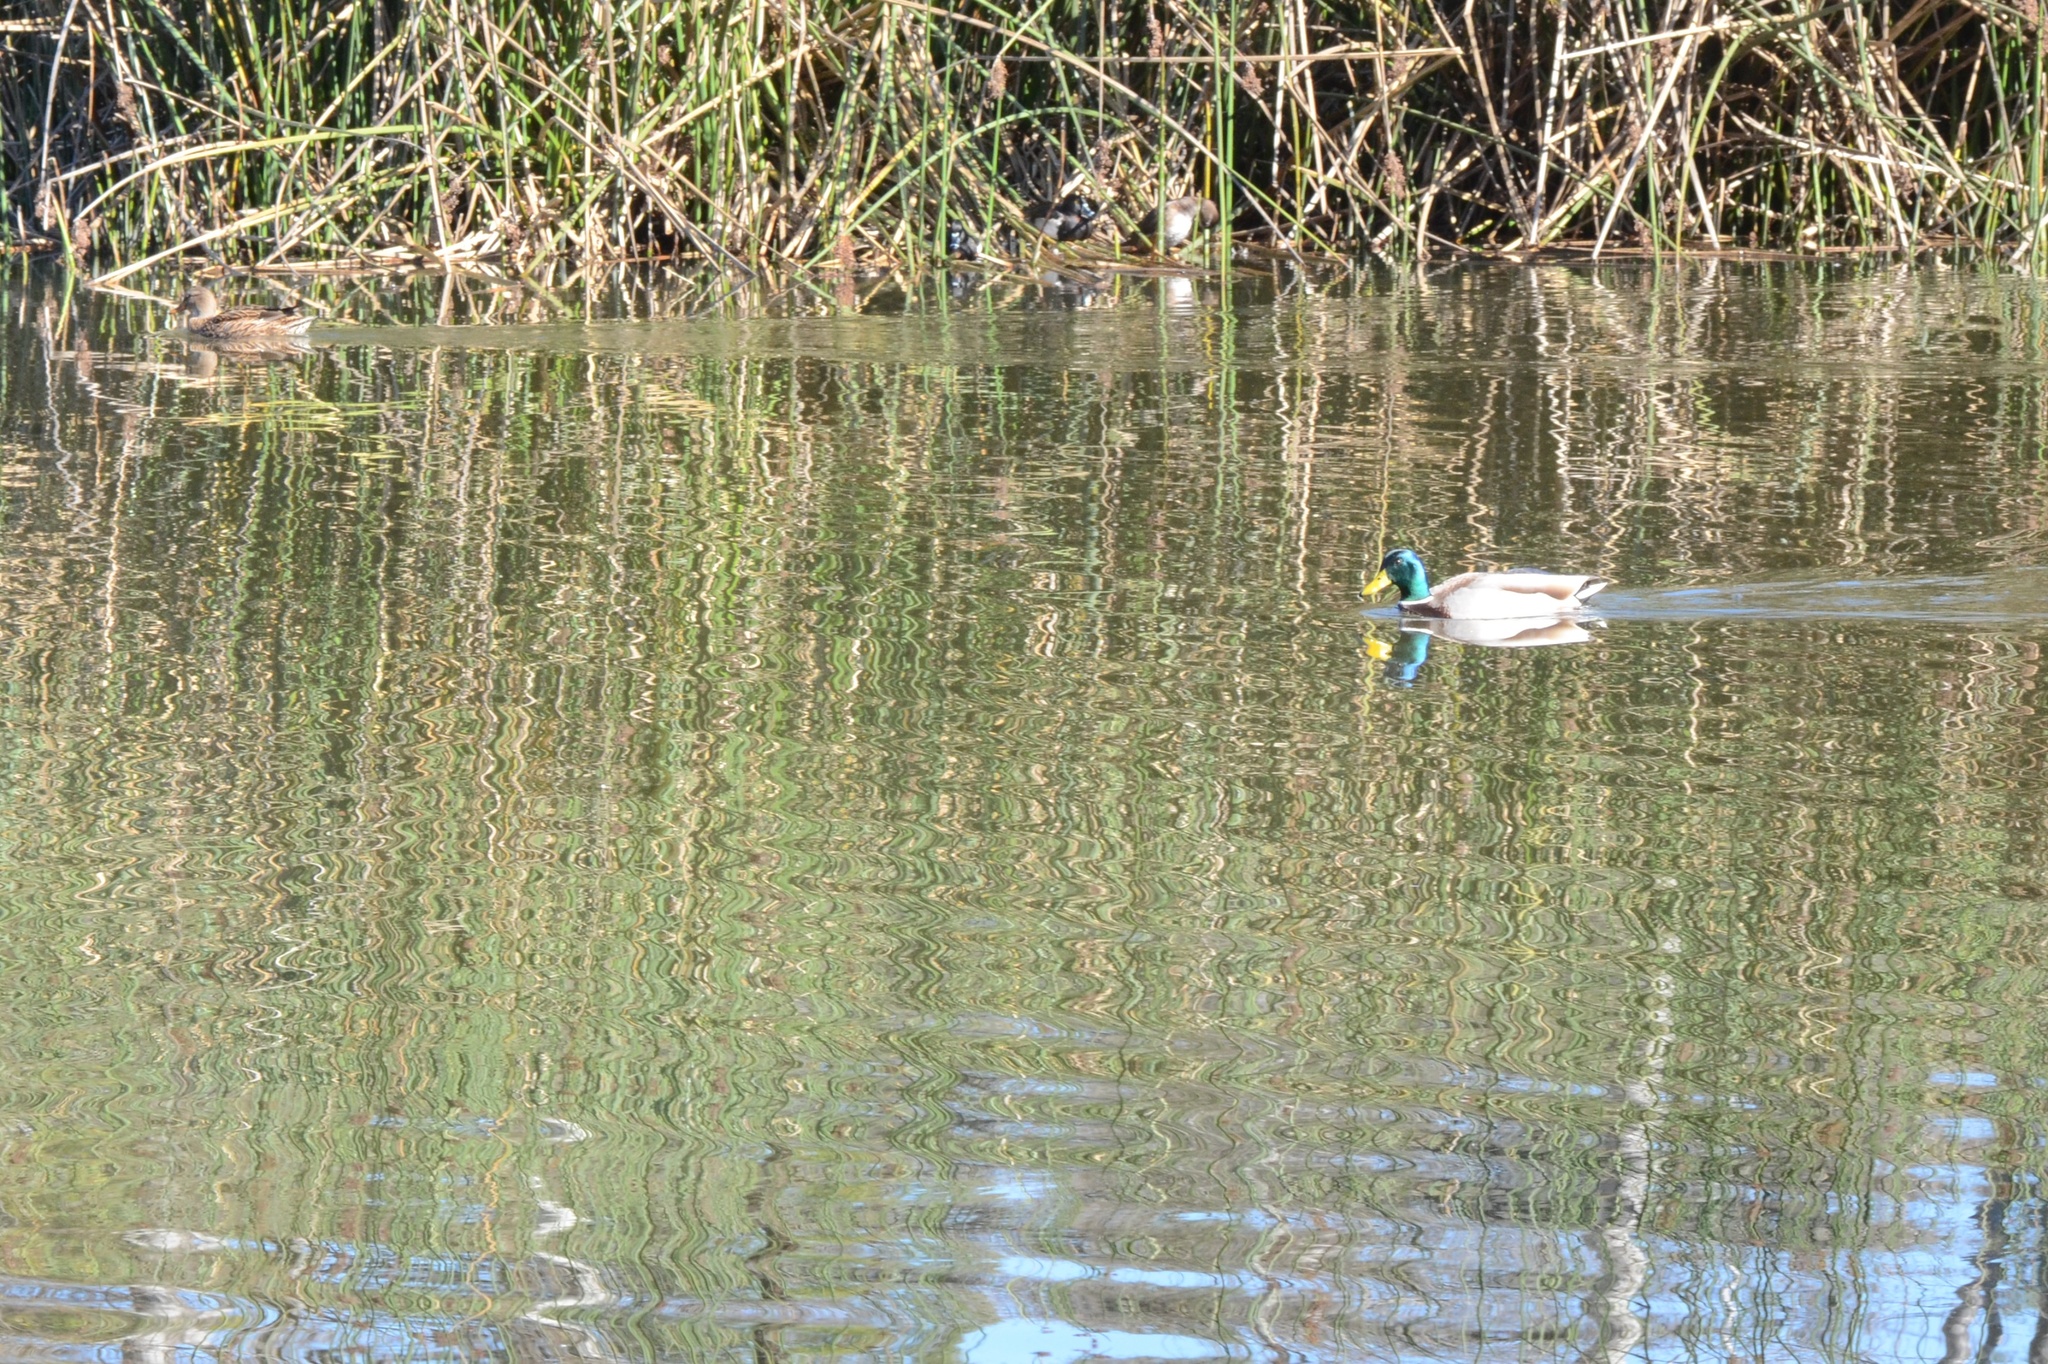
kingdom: Animalia
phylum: Chordata
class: Aves
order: Anseriformes
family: Anatidae
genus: Anas
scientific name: Anas platyrhynchos
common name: Mallard
